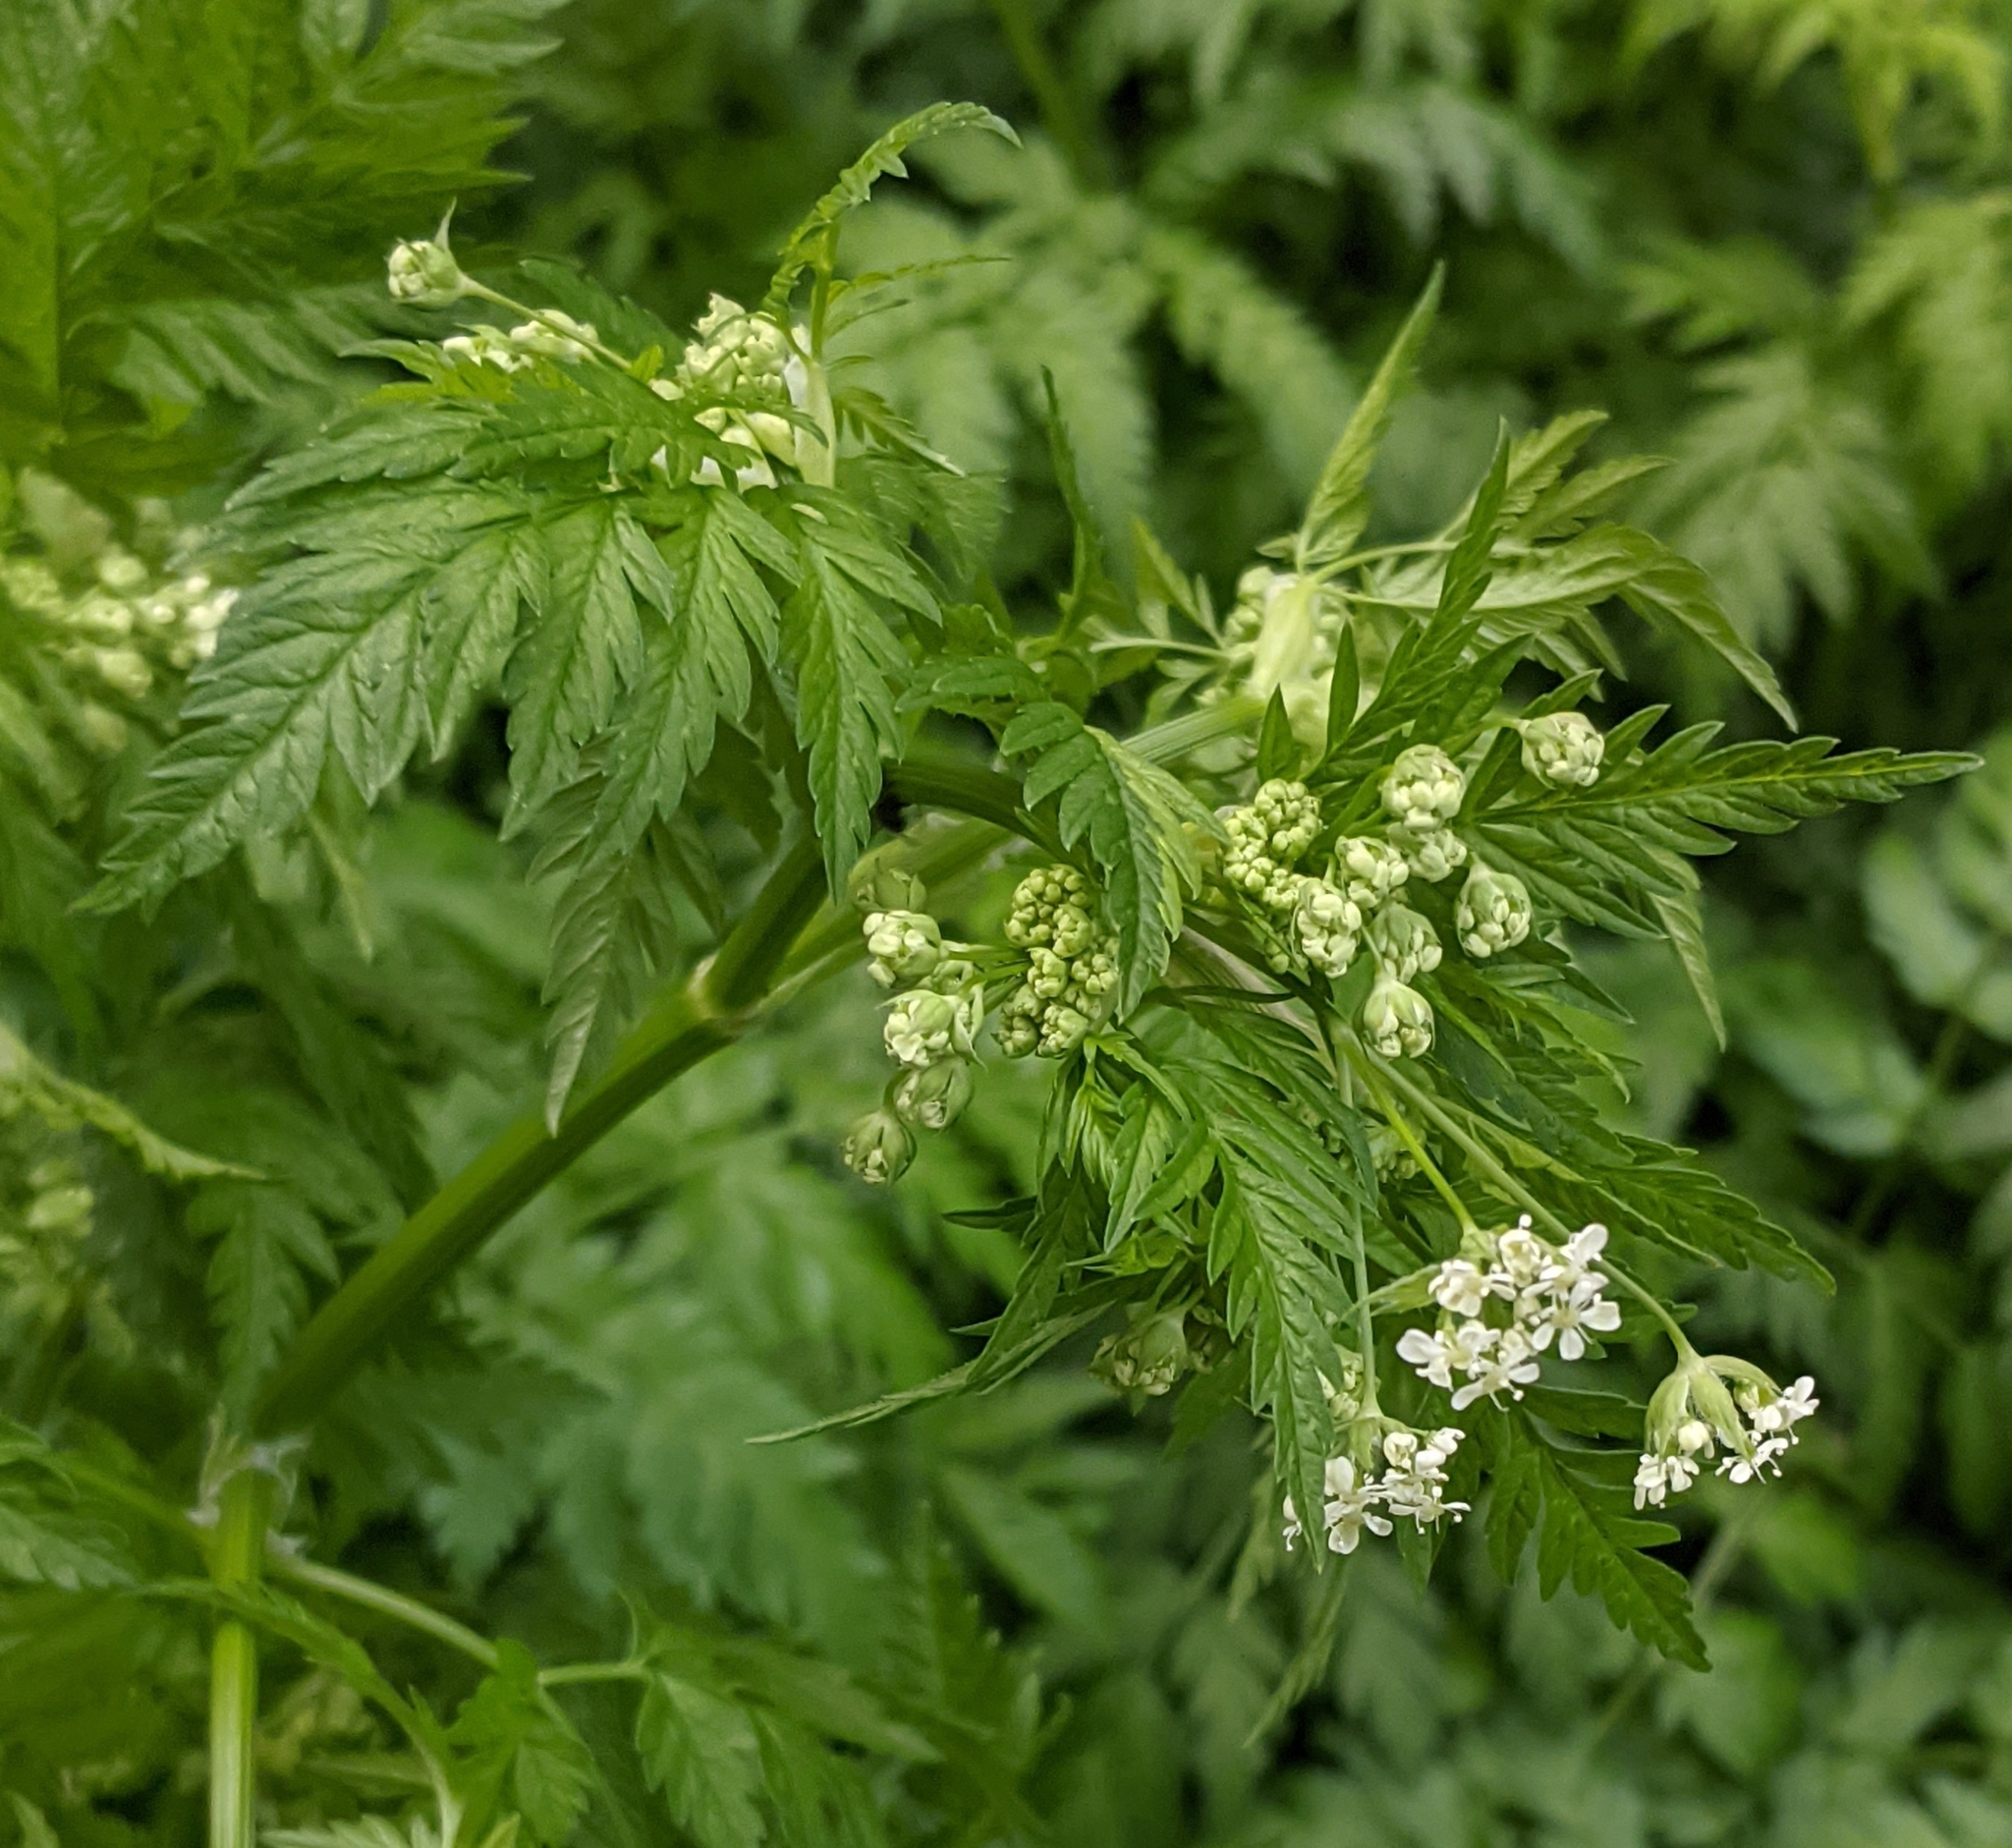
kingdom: Plantae
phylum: Tracheophyta
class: Magnoliopsida
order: Apiales
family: Apiaceae
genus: Anthriscus
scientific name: Anthriscus sylvestris
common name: Cow parsley
